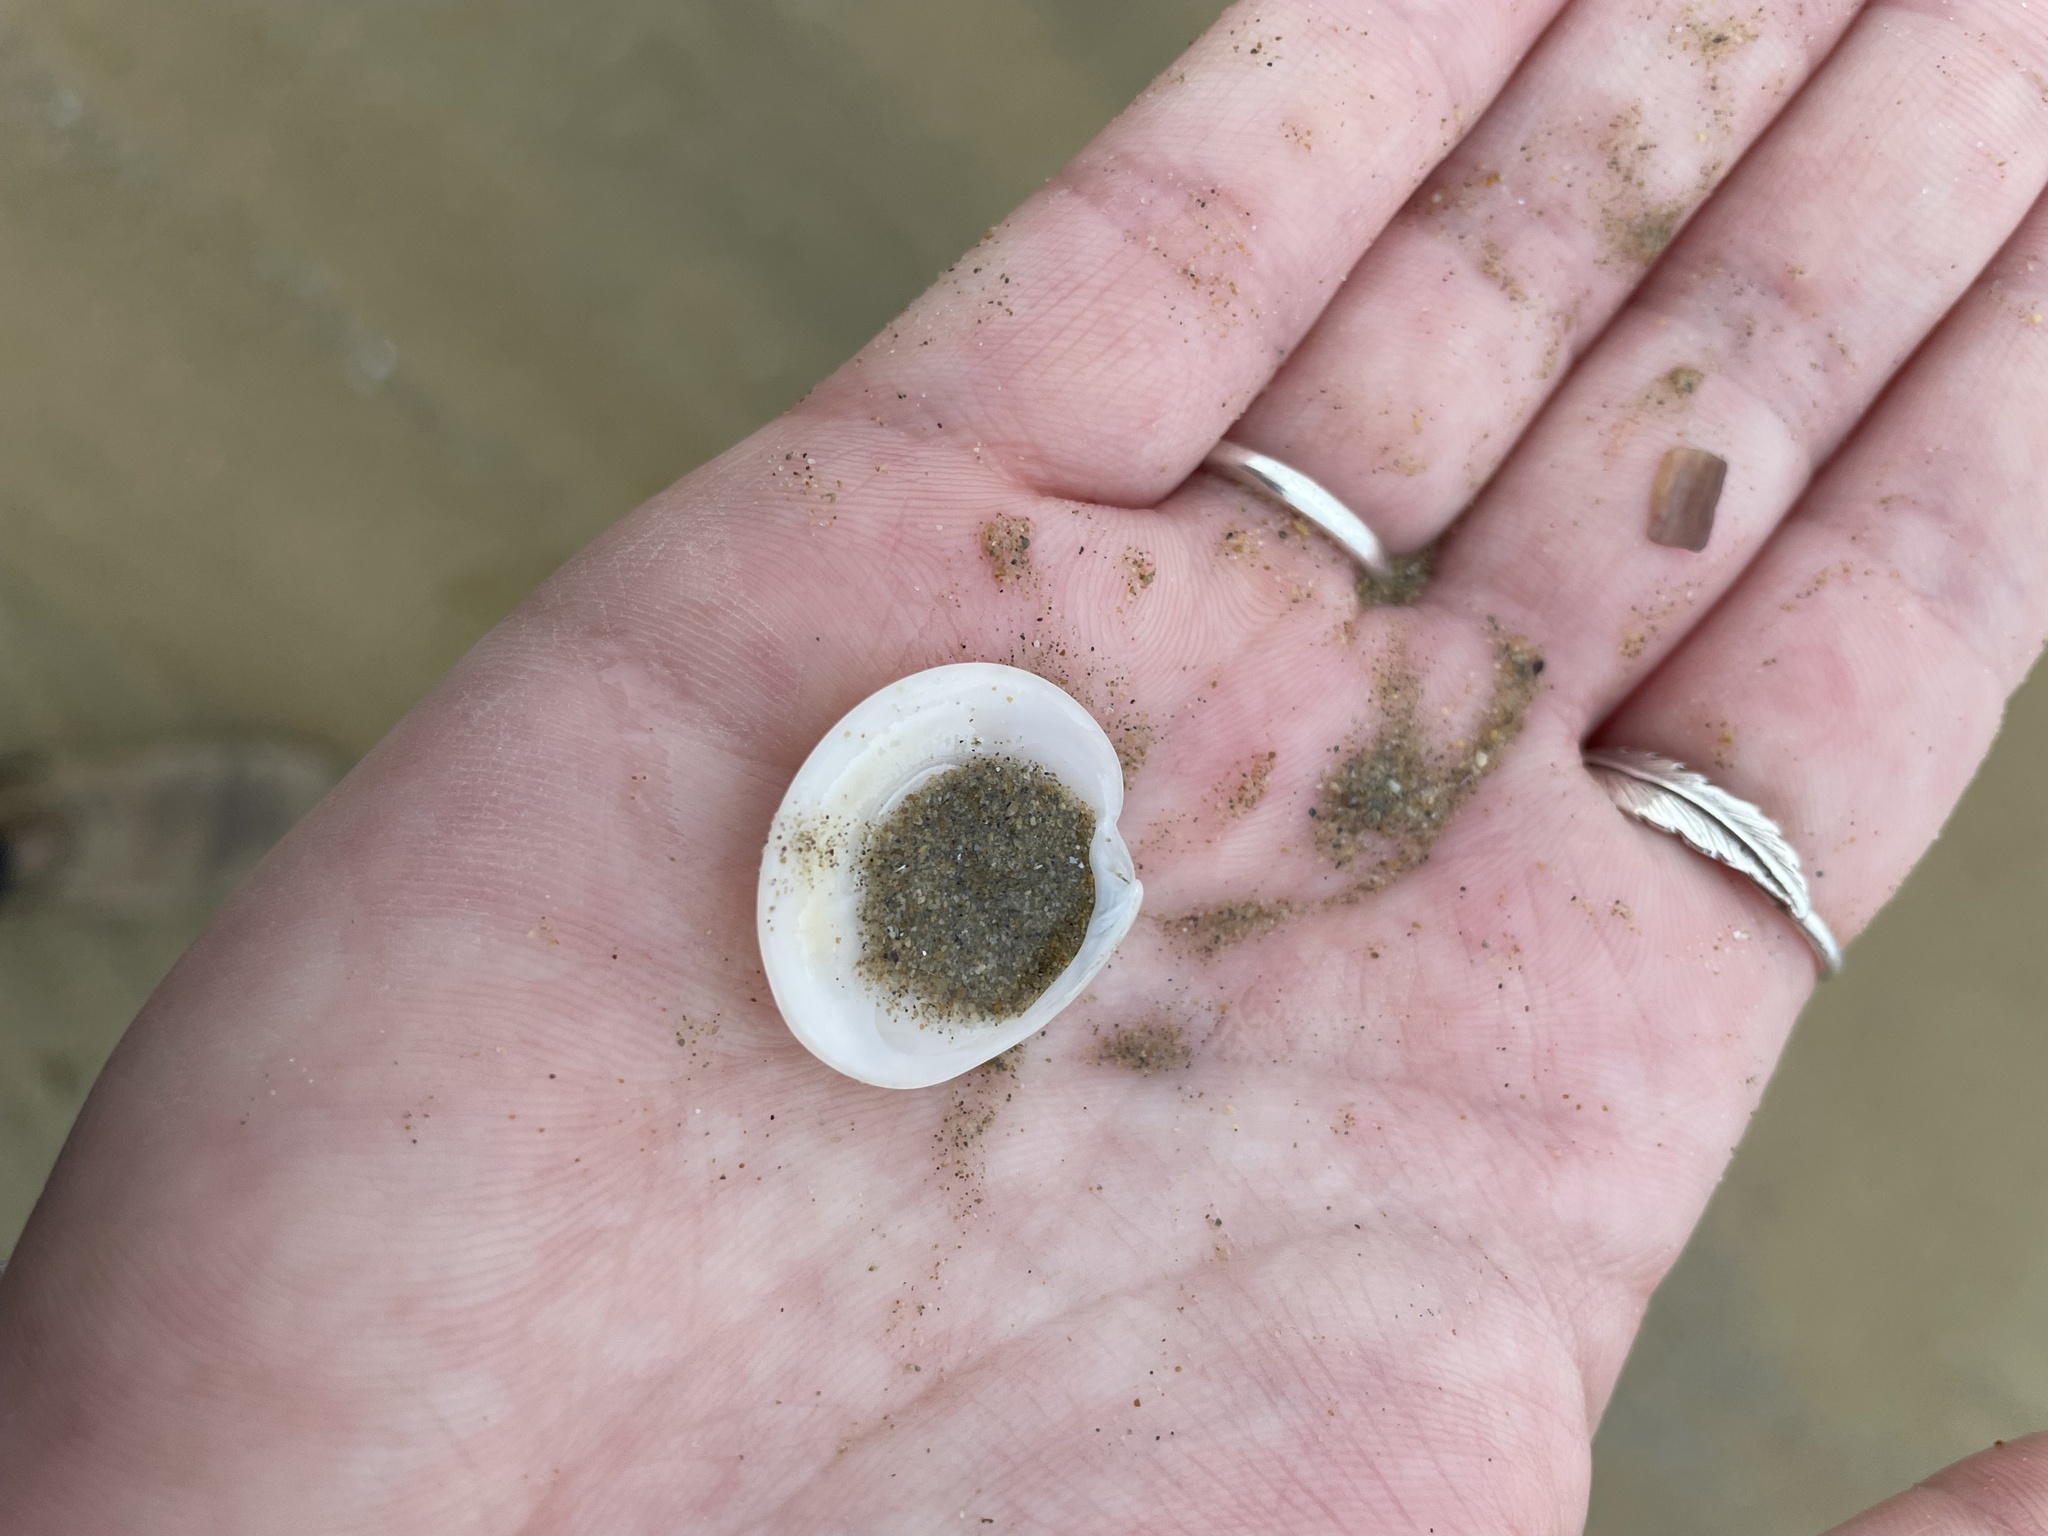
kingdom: Animalia
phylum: Mollusca
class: Bivalvia
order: Venerida
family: Veneridae
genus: Dosinia
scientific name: Dosinia lupinus
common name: Smooth artemis
